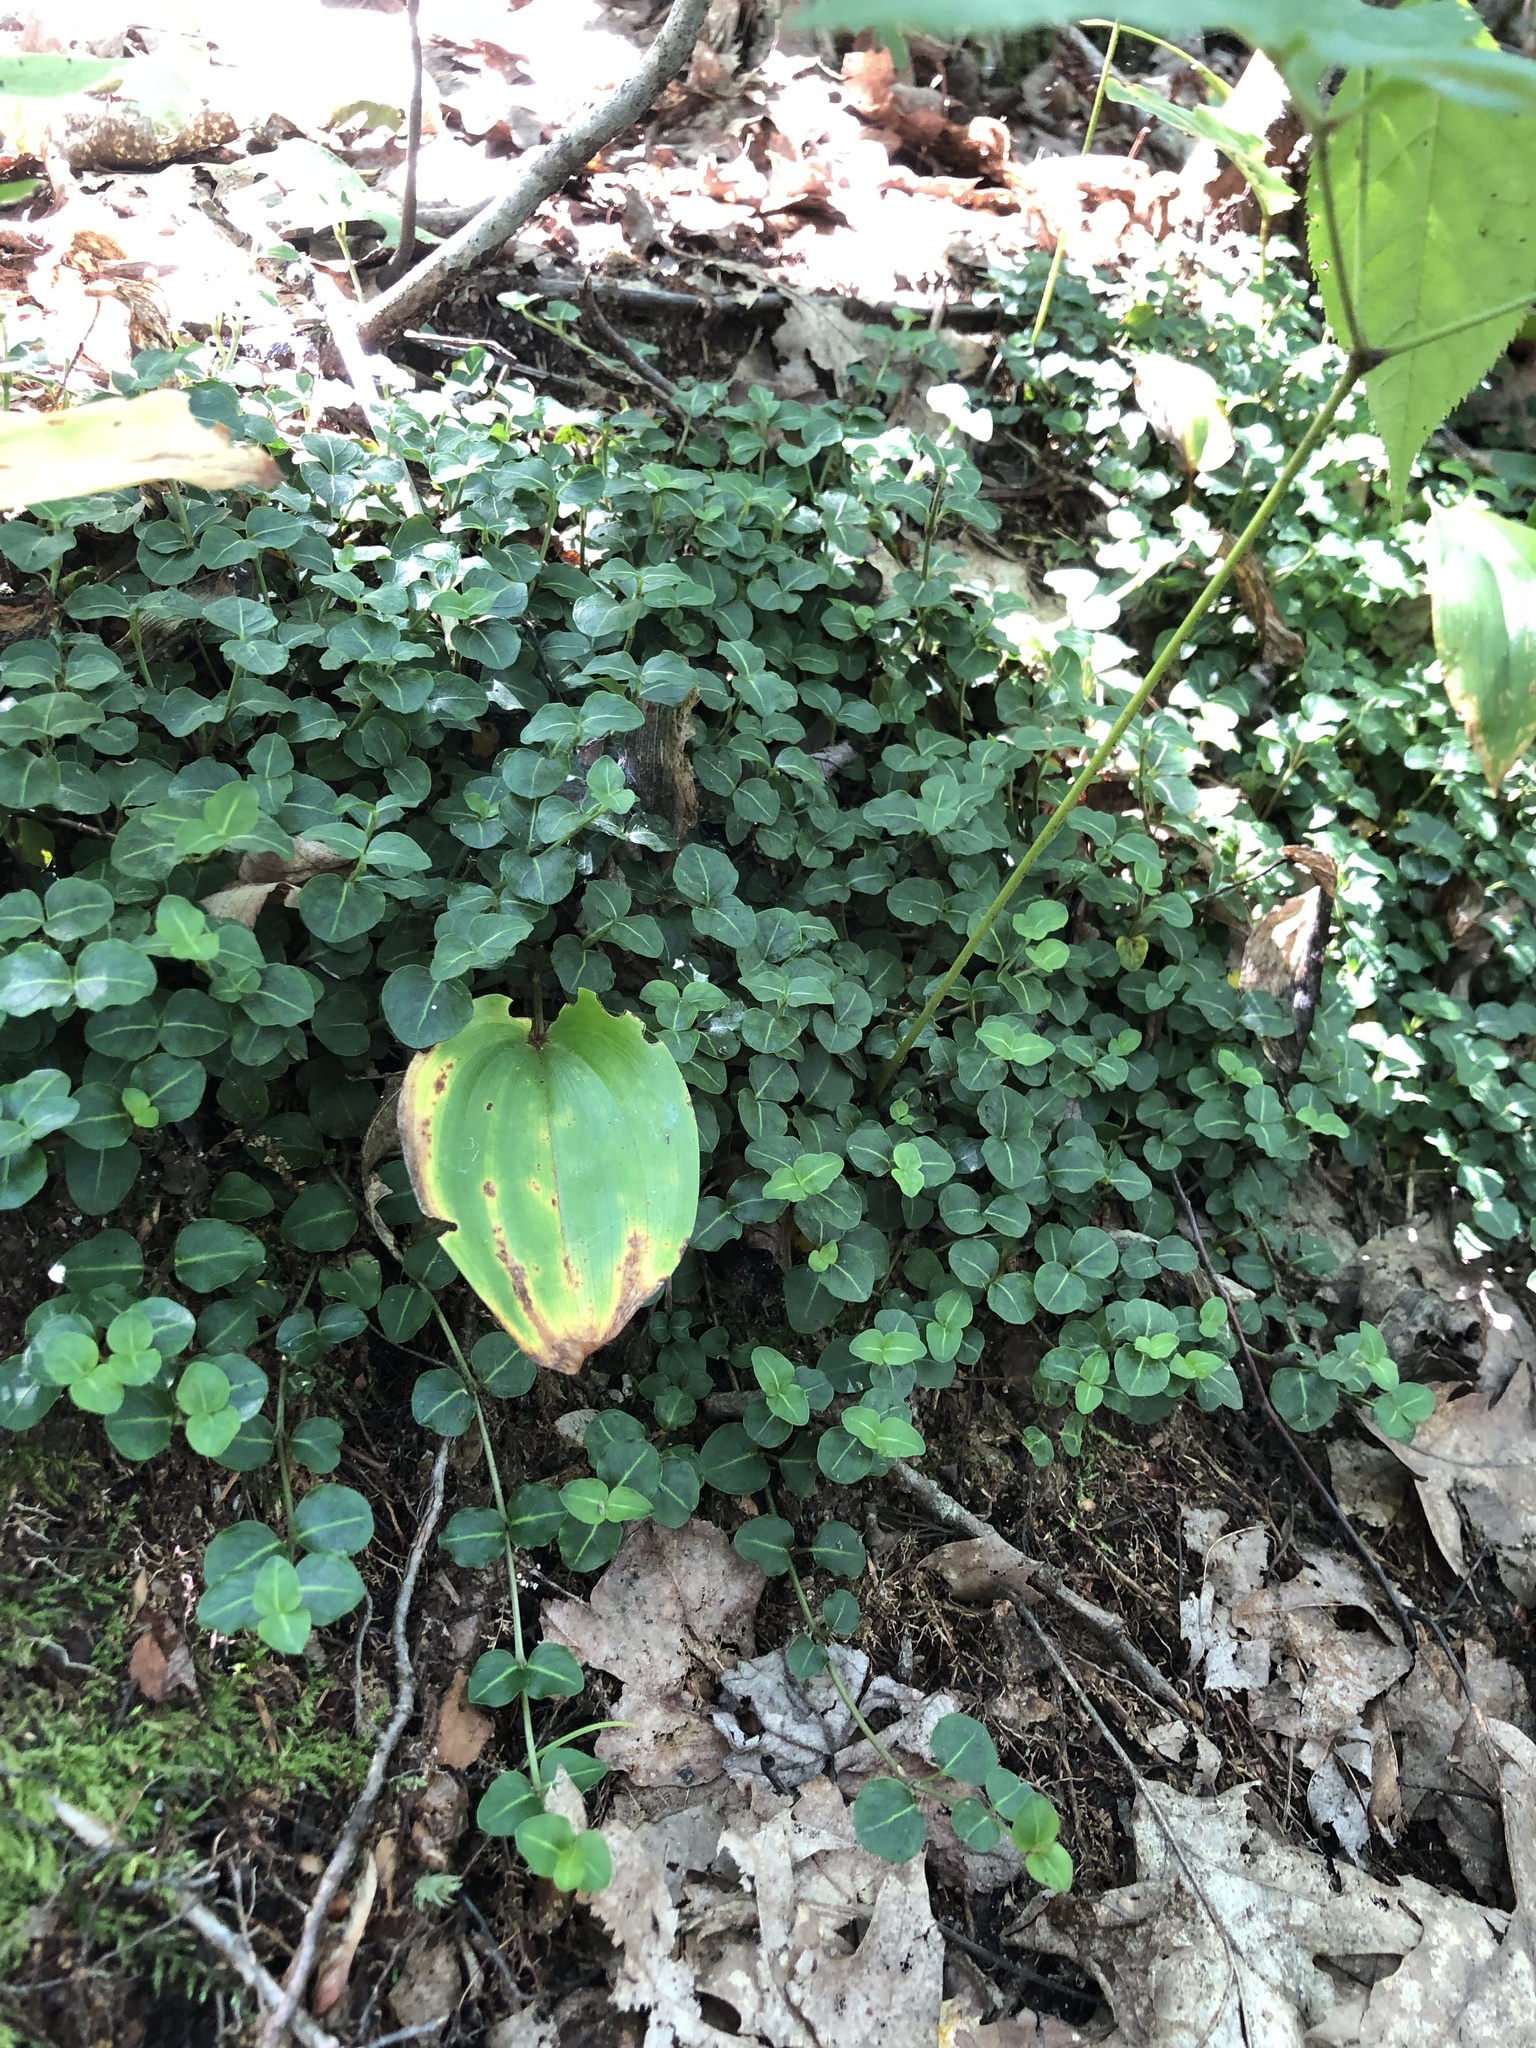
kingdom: Plantae
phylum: Tracheophyta
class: Magnoliopsida
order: Gentianales
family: Rubiaceae
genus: Mitchella
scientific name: Mitchella repens
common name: Partridge-berry
